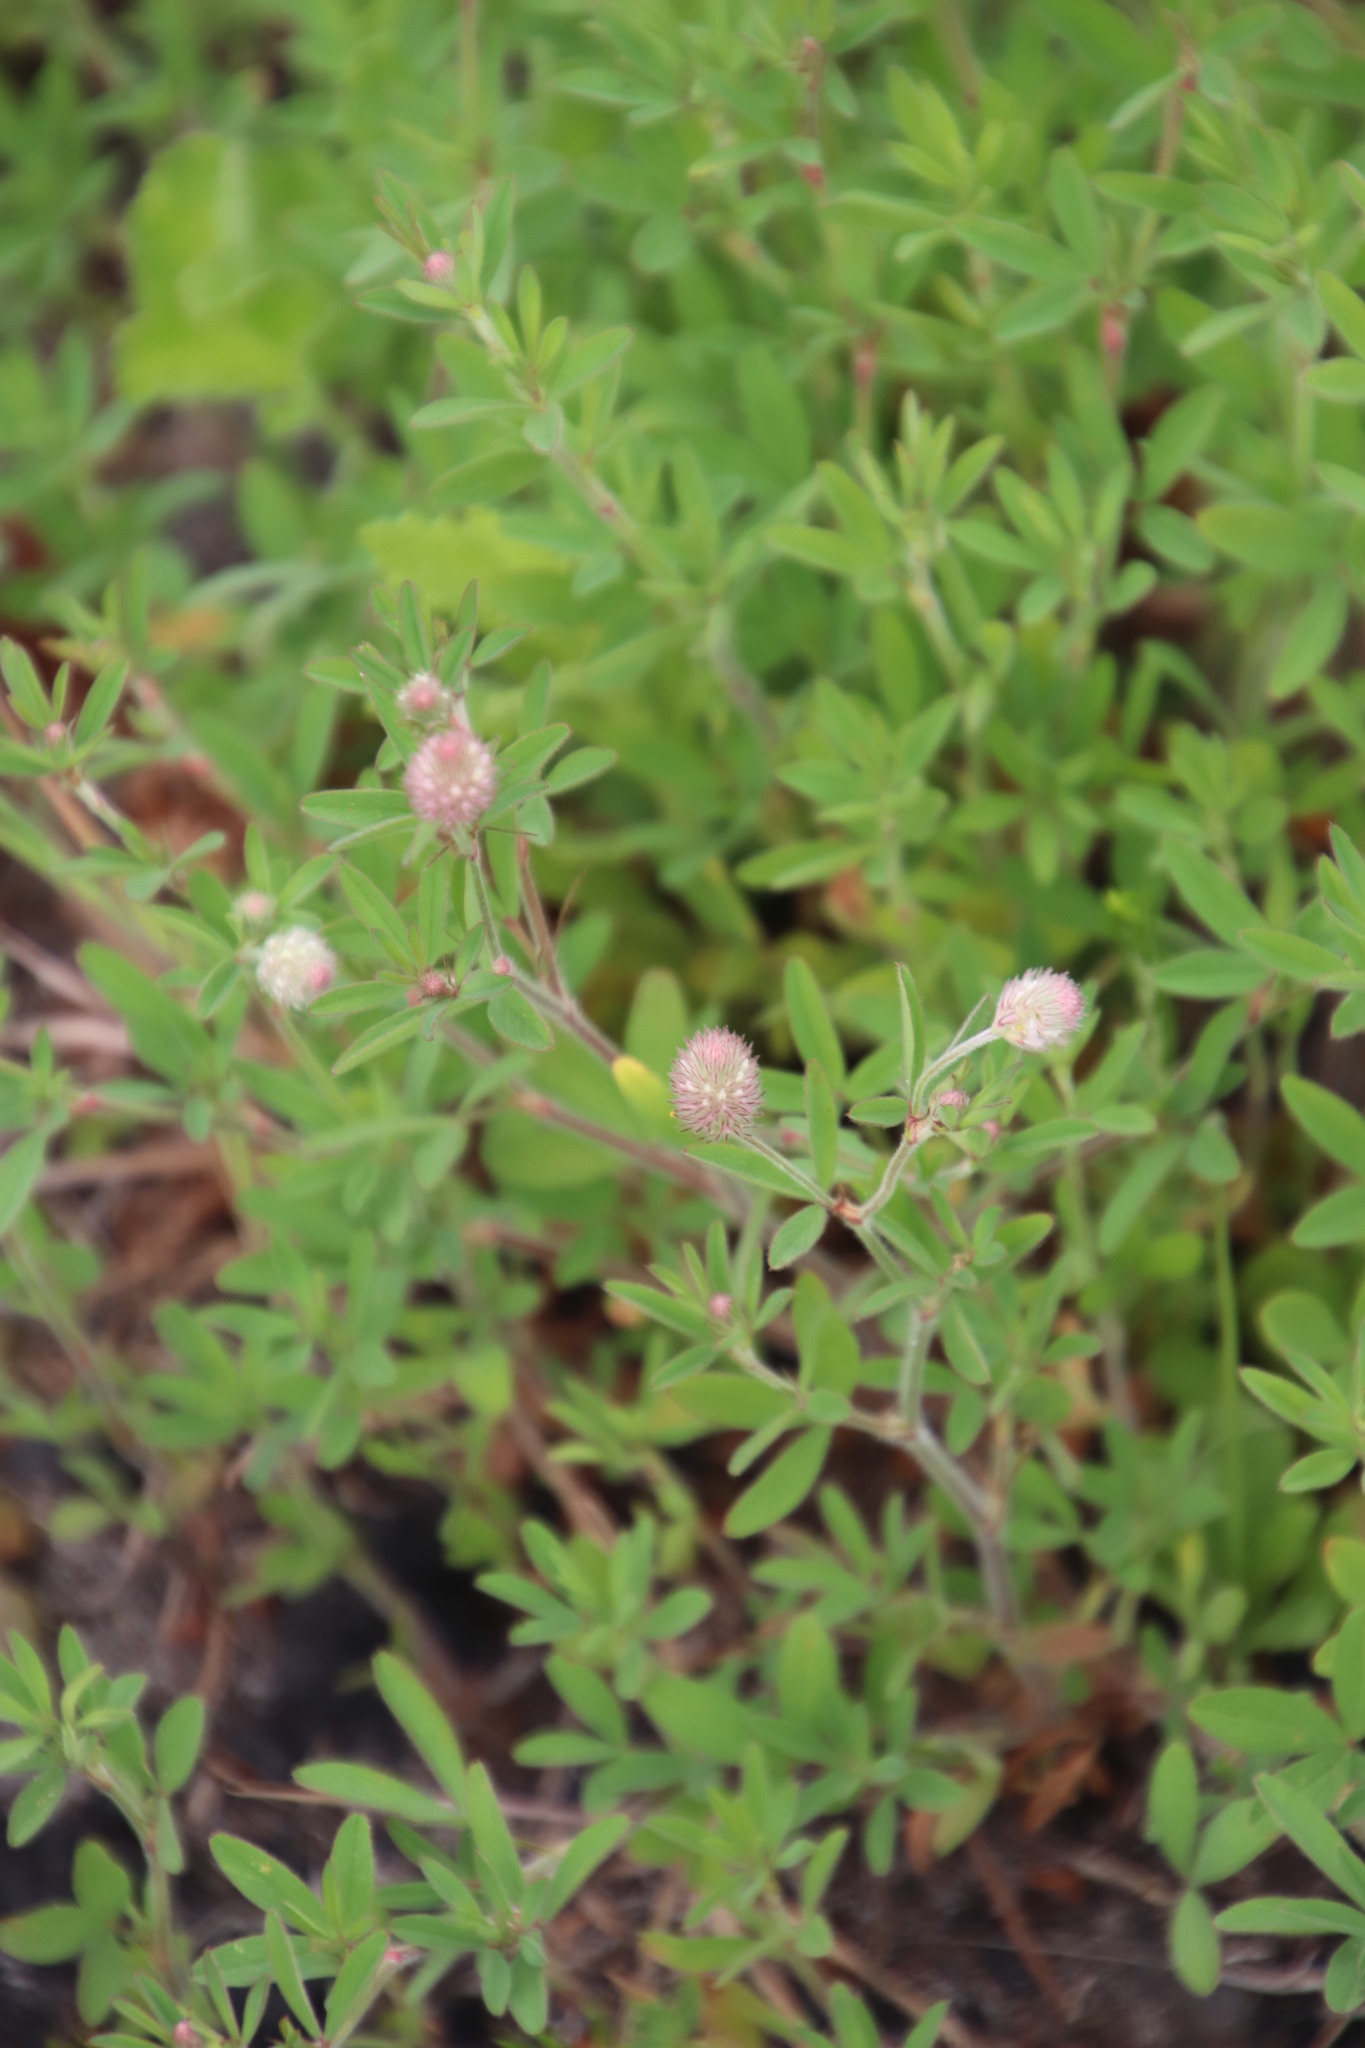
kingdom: Plantae
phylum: Tracheophyta
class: Magnoliopsida
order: Fabales
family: Fabaceae
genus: Trifolium
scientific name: Trifolium arvense
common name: Hare's-foot clover
